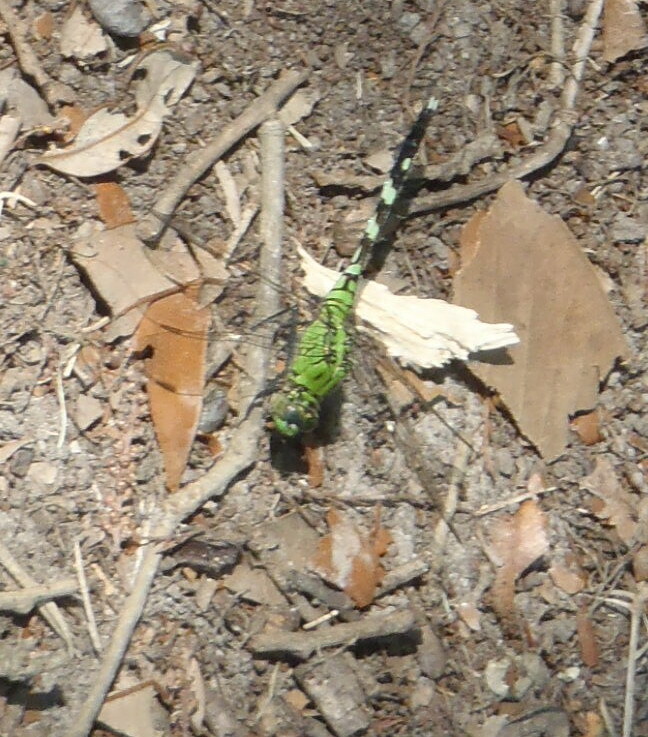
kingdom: Animalia
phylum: Arthropoda
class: Insecta
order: Odonata
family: Libellulidae
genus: Erythemis
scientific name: Erythemis simplicicollis
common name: Eastern pondhawk
